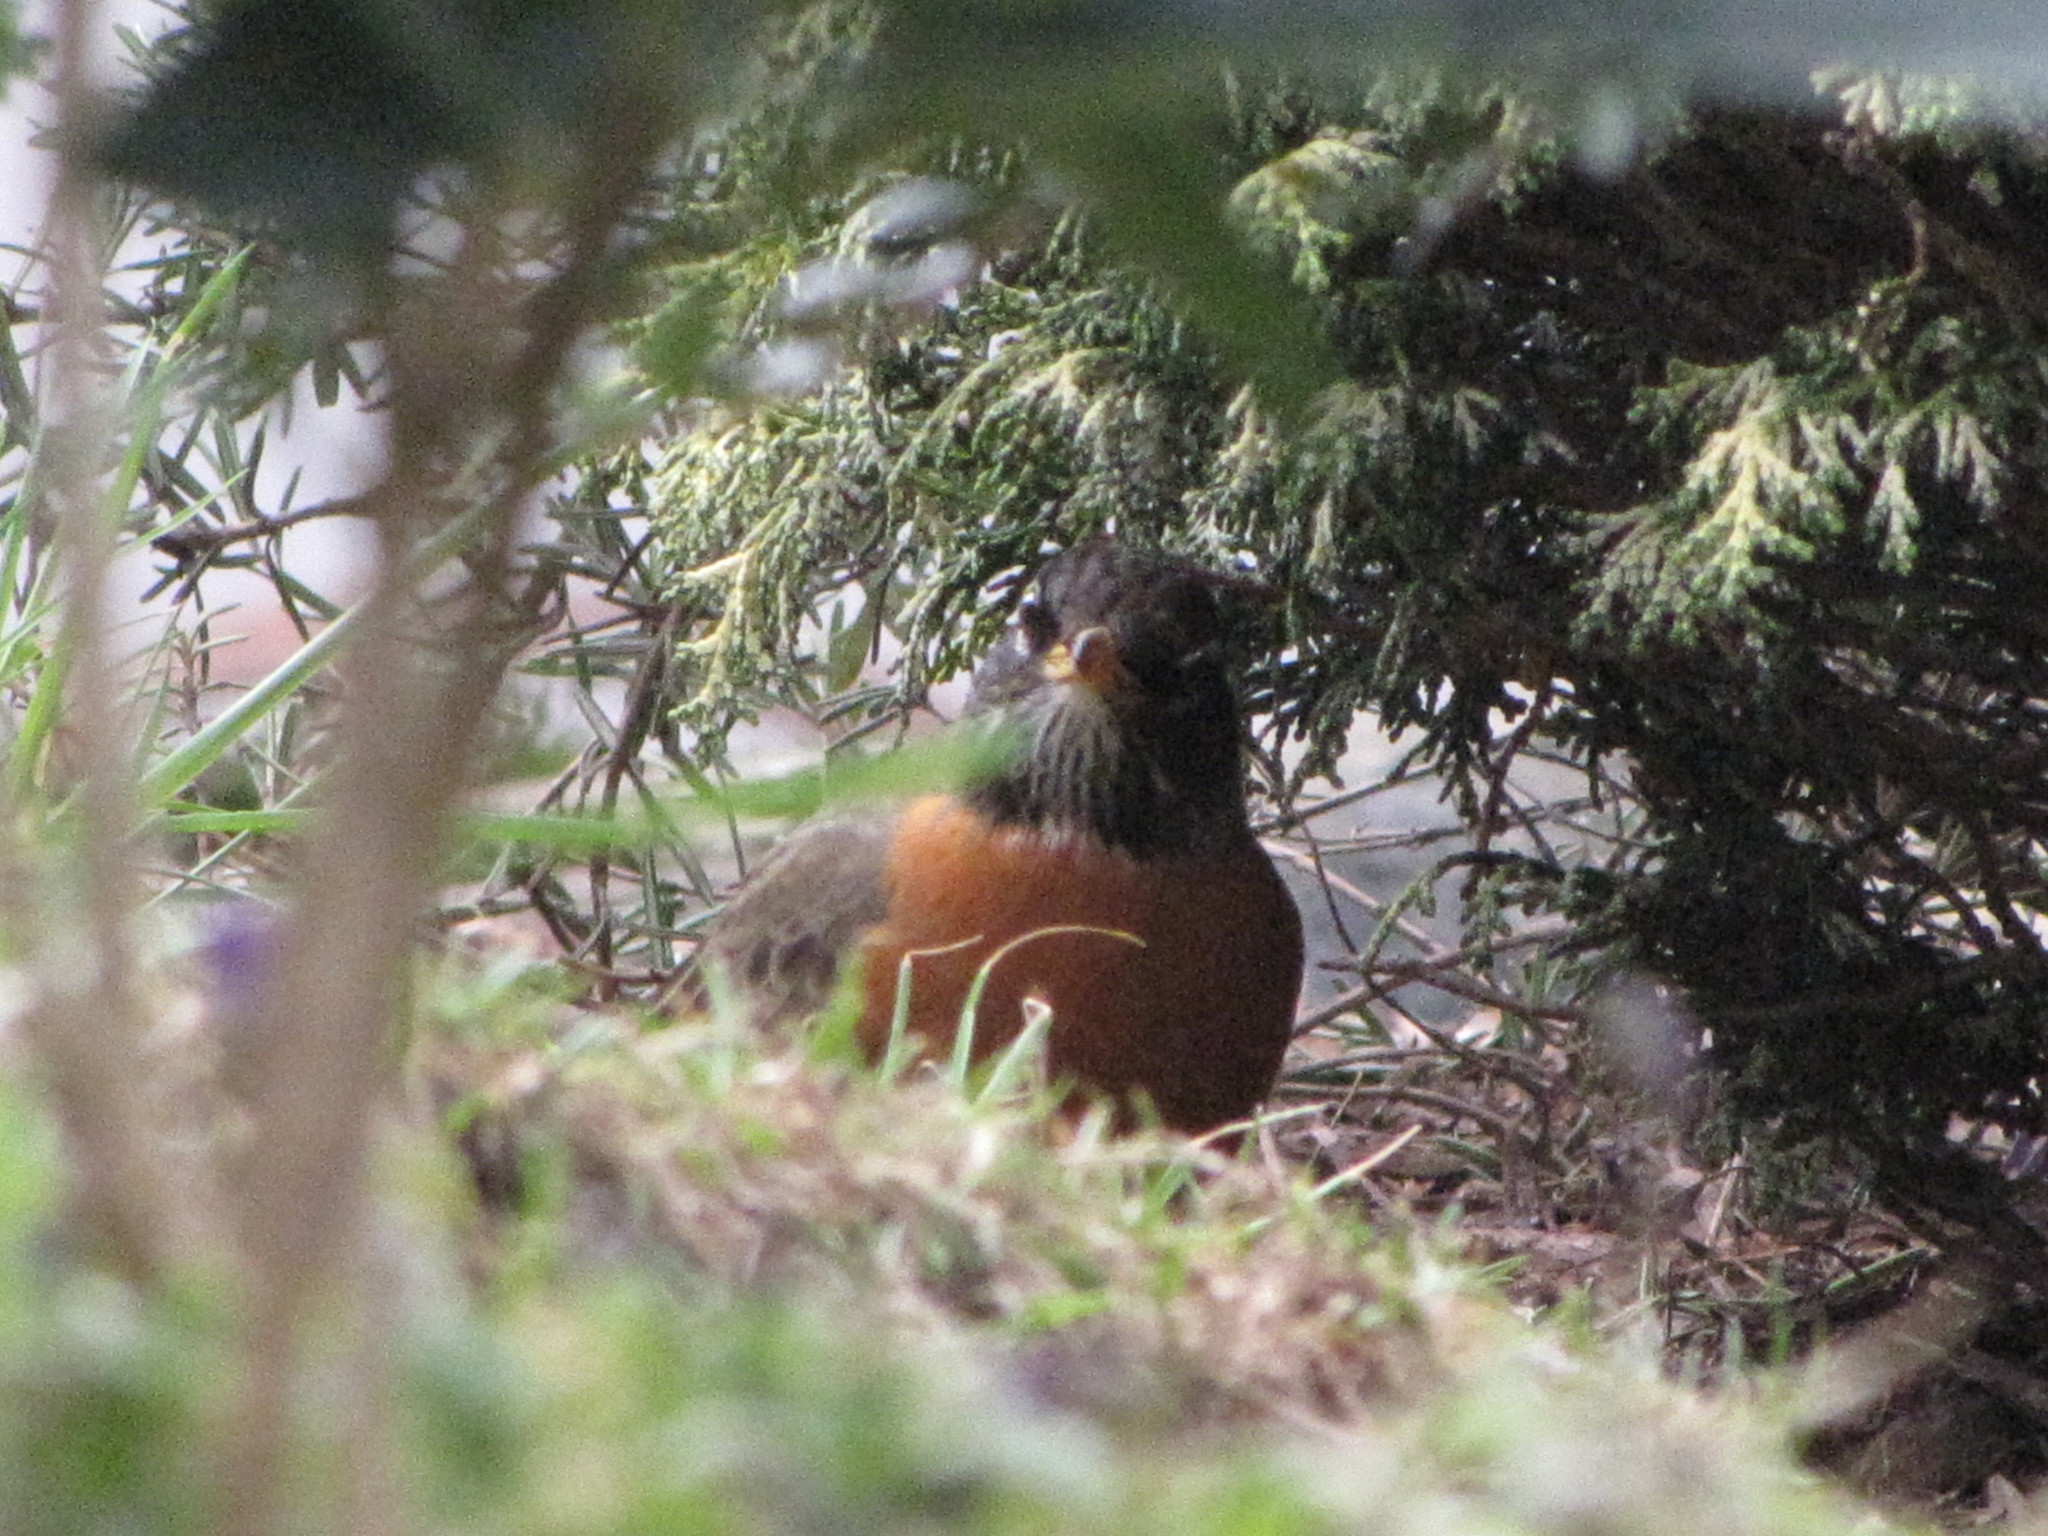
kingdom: Animalia
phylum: Chordata
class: Aves
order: Passeriformes
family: Turdidae
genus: Turdus
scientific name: Turdus migratorius
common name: American robin
